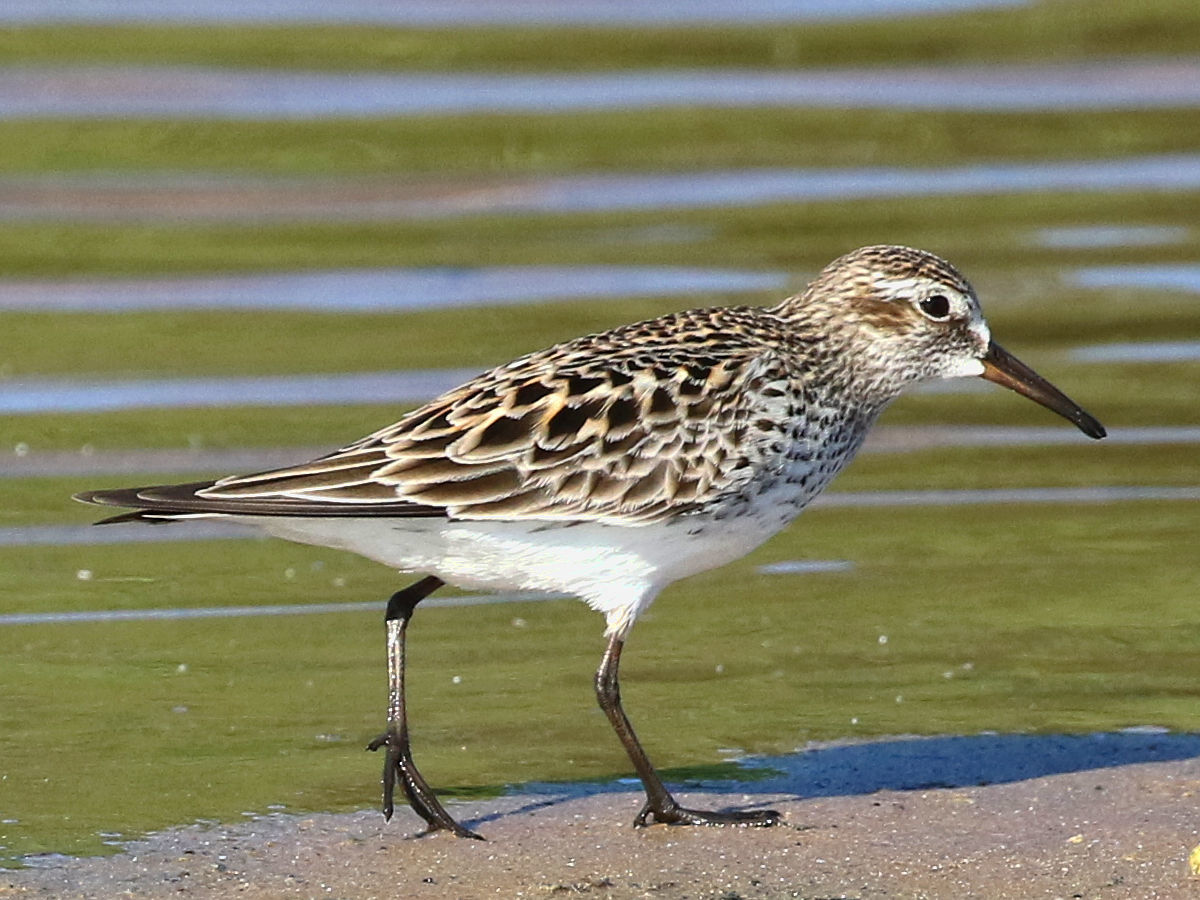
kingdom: Animalia
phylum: Chordata
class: Aves
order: Charadriiformes
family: Scolopacidae
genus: Calidris
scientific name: Calidris fuscicollis
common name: White-rumped sandpiper
